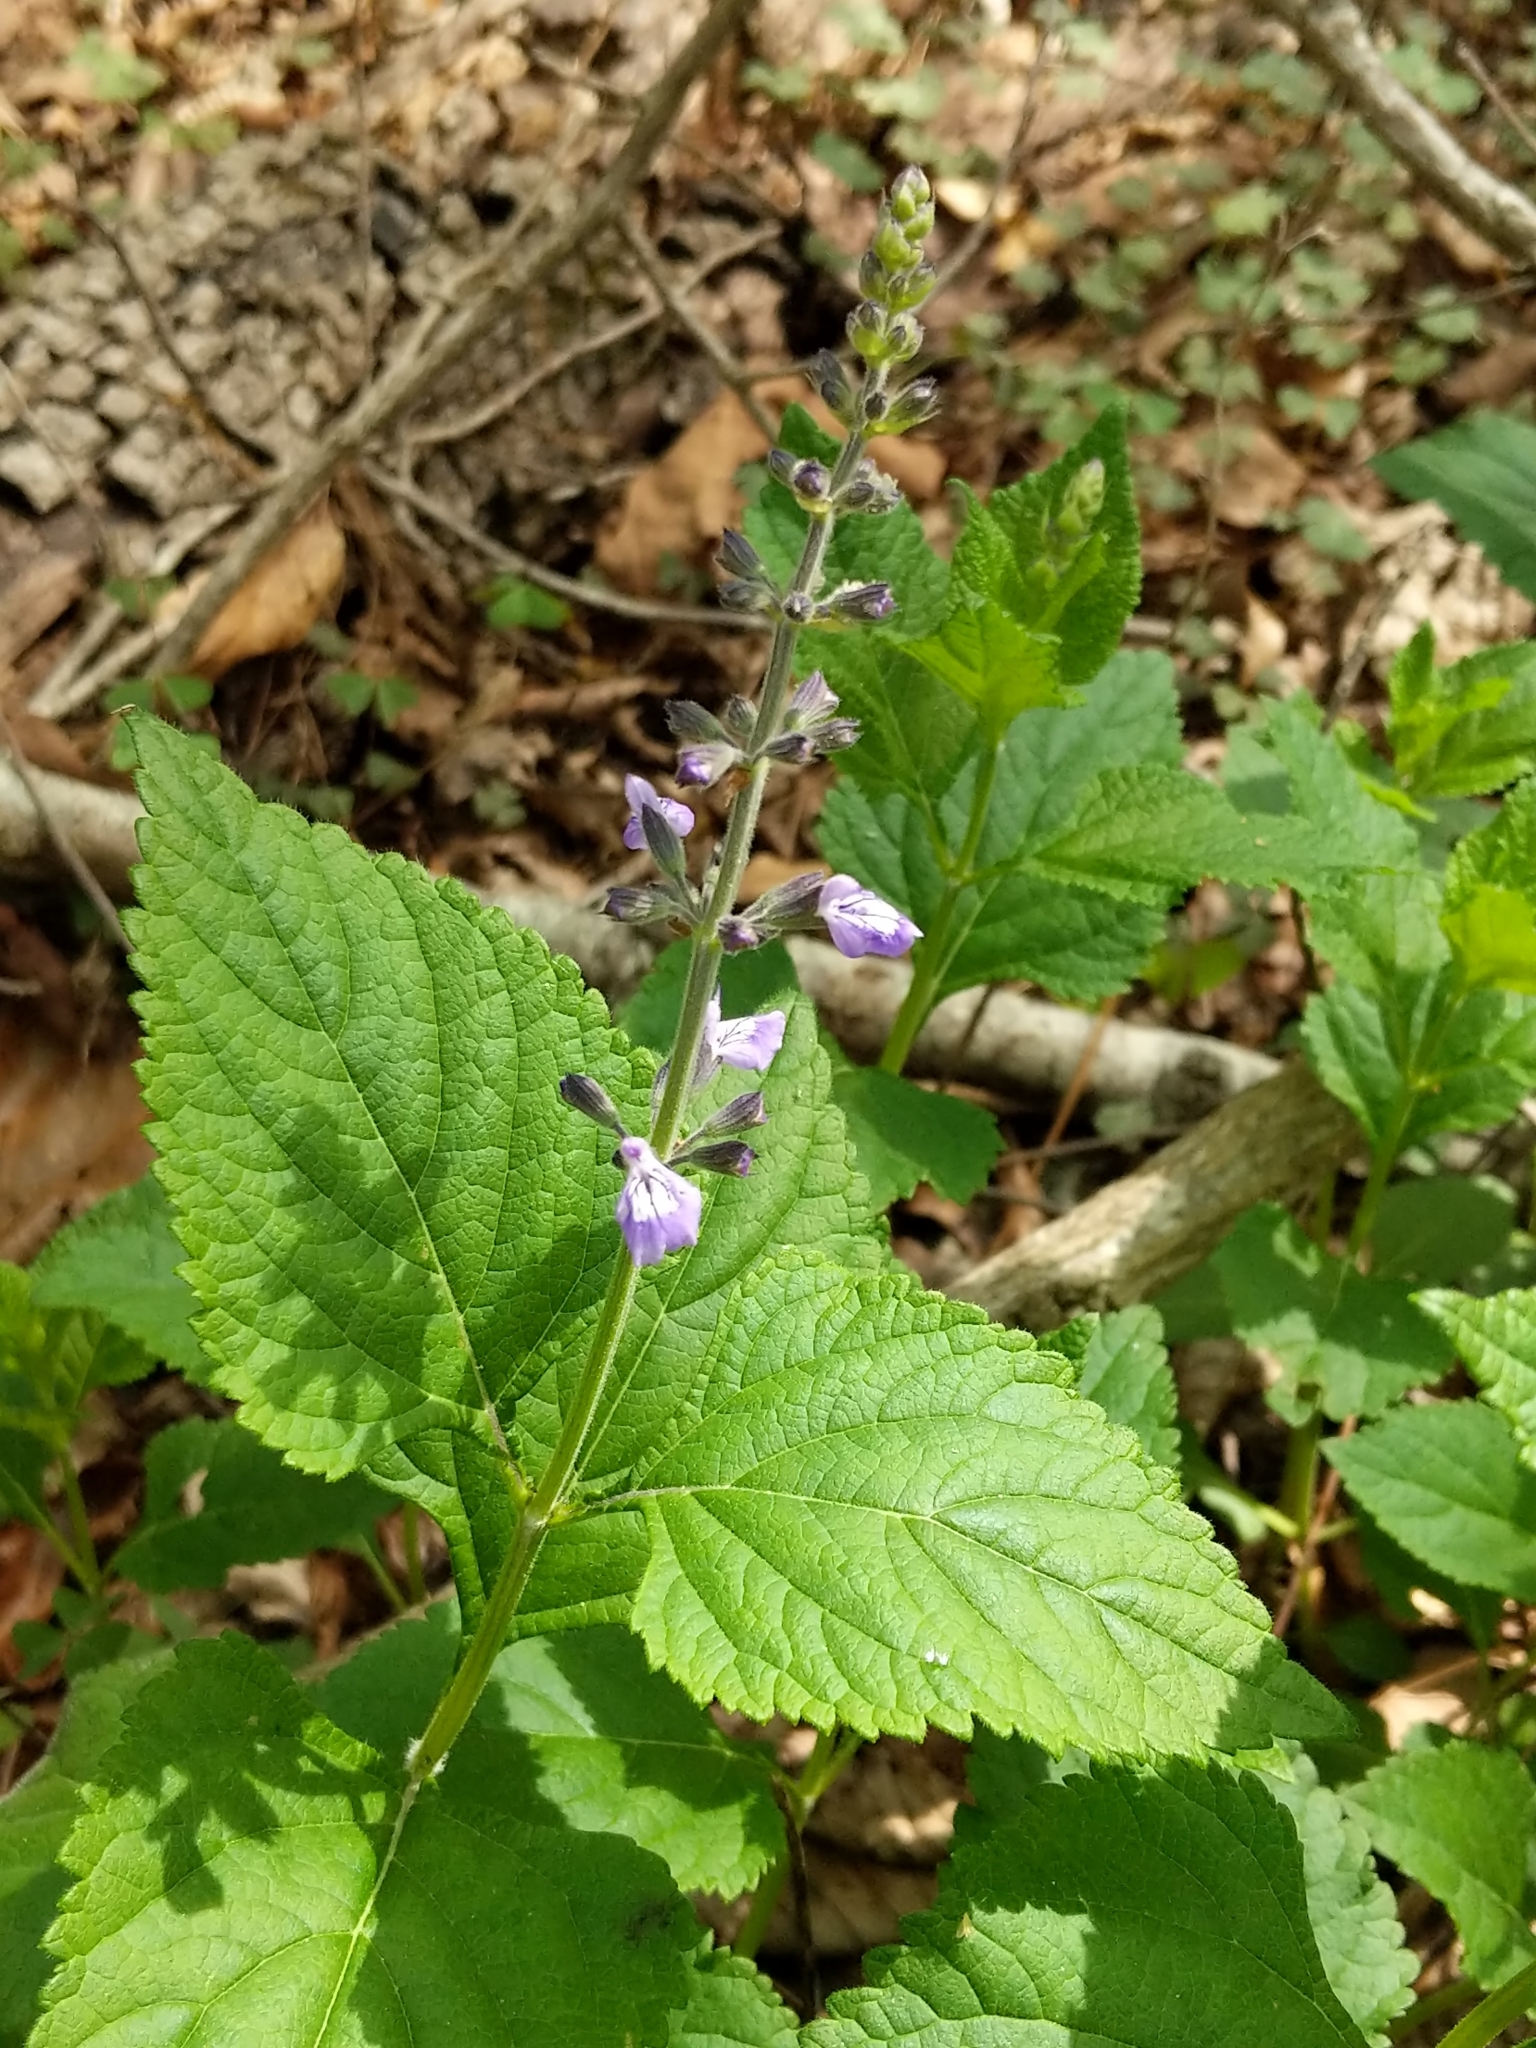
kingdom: Plantae
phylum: Tracheophyta
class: Magnoliopsida
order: Lamiales
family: Lamiaceae
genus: Salvia
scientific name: Salvia urticifolia
